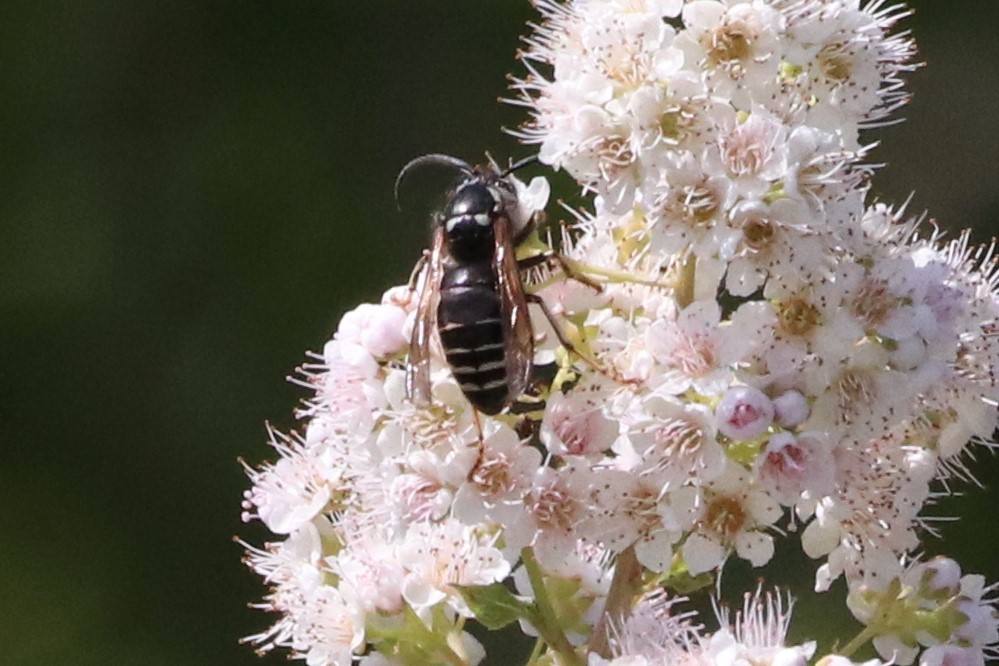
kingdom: Animalia
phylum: Arthropoda
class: Insecta
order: Hymenoptera
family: Vespidae
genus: Dolichovespula
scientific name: Dolichovespula adulterina
